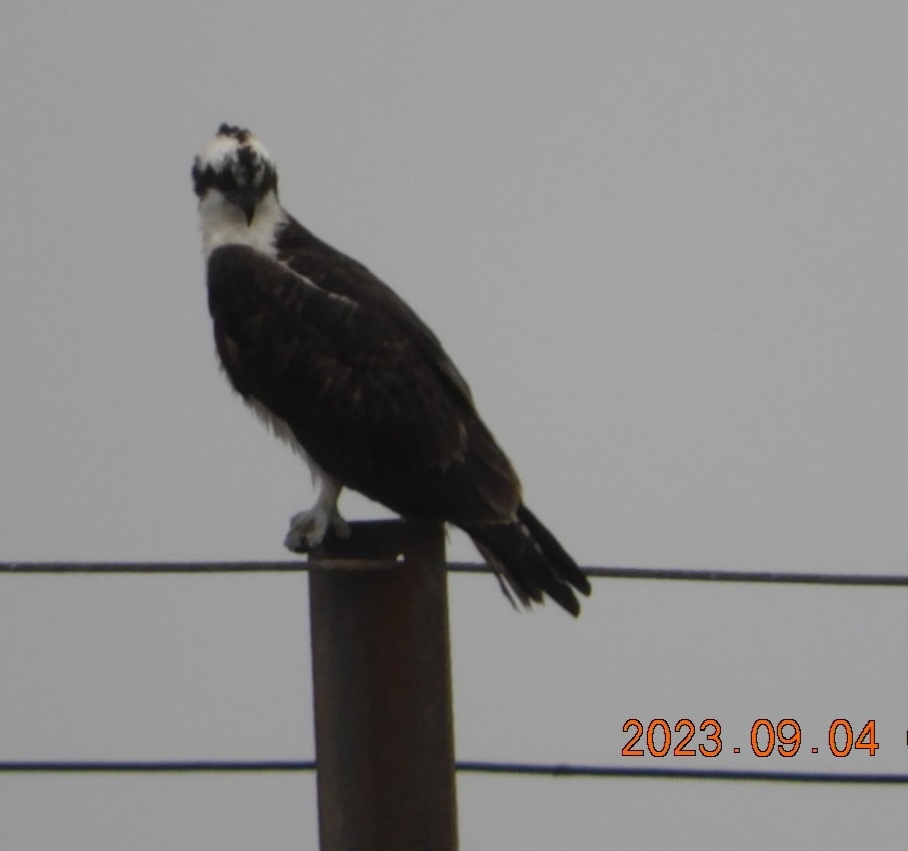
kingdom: Animalia
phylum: Chordata
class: Aves
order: Accipitriformes
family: Pandionidae
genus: Pandion
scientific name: Pandion haliaetus
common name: Osprey
